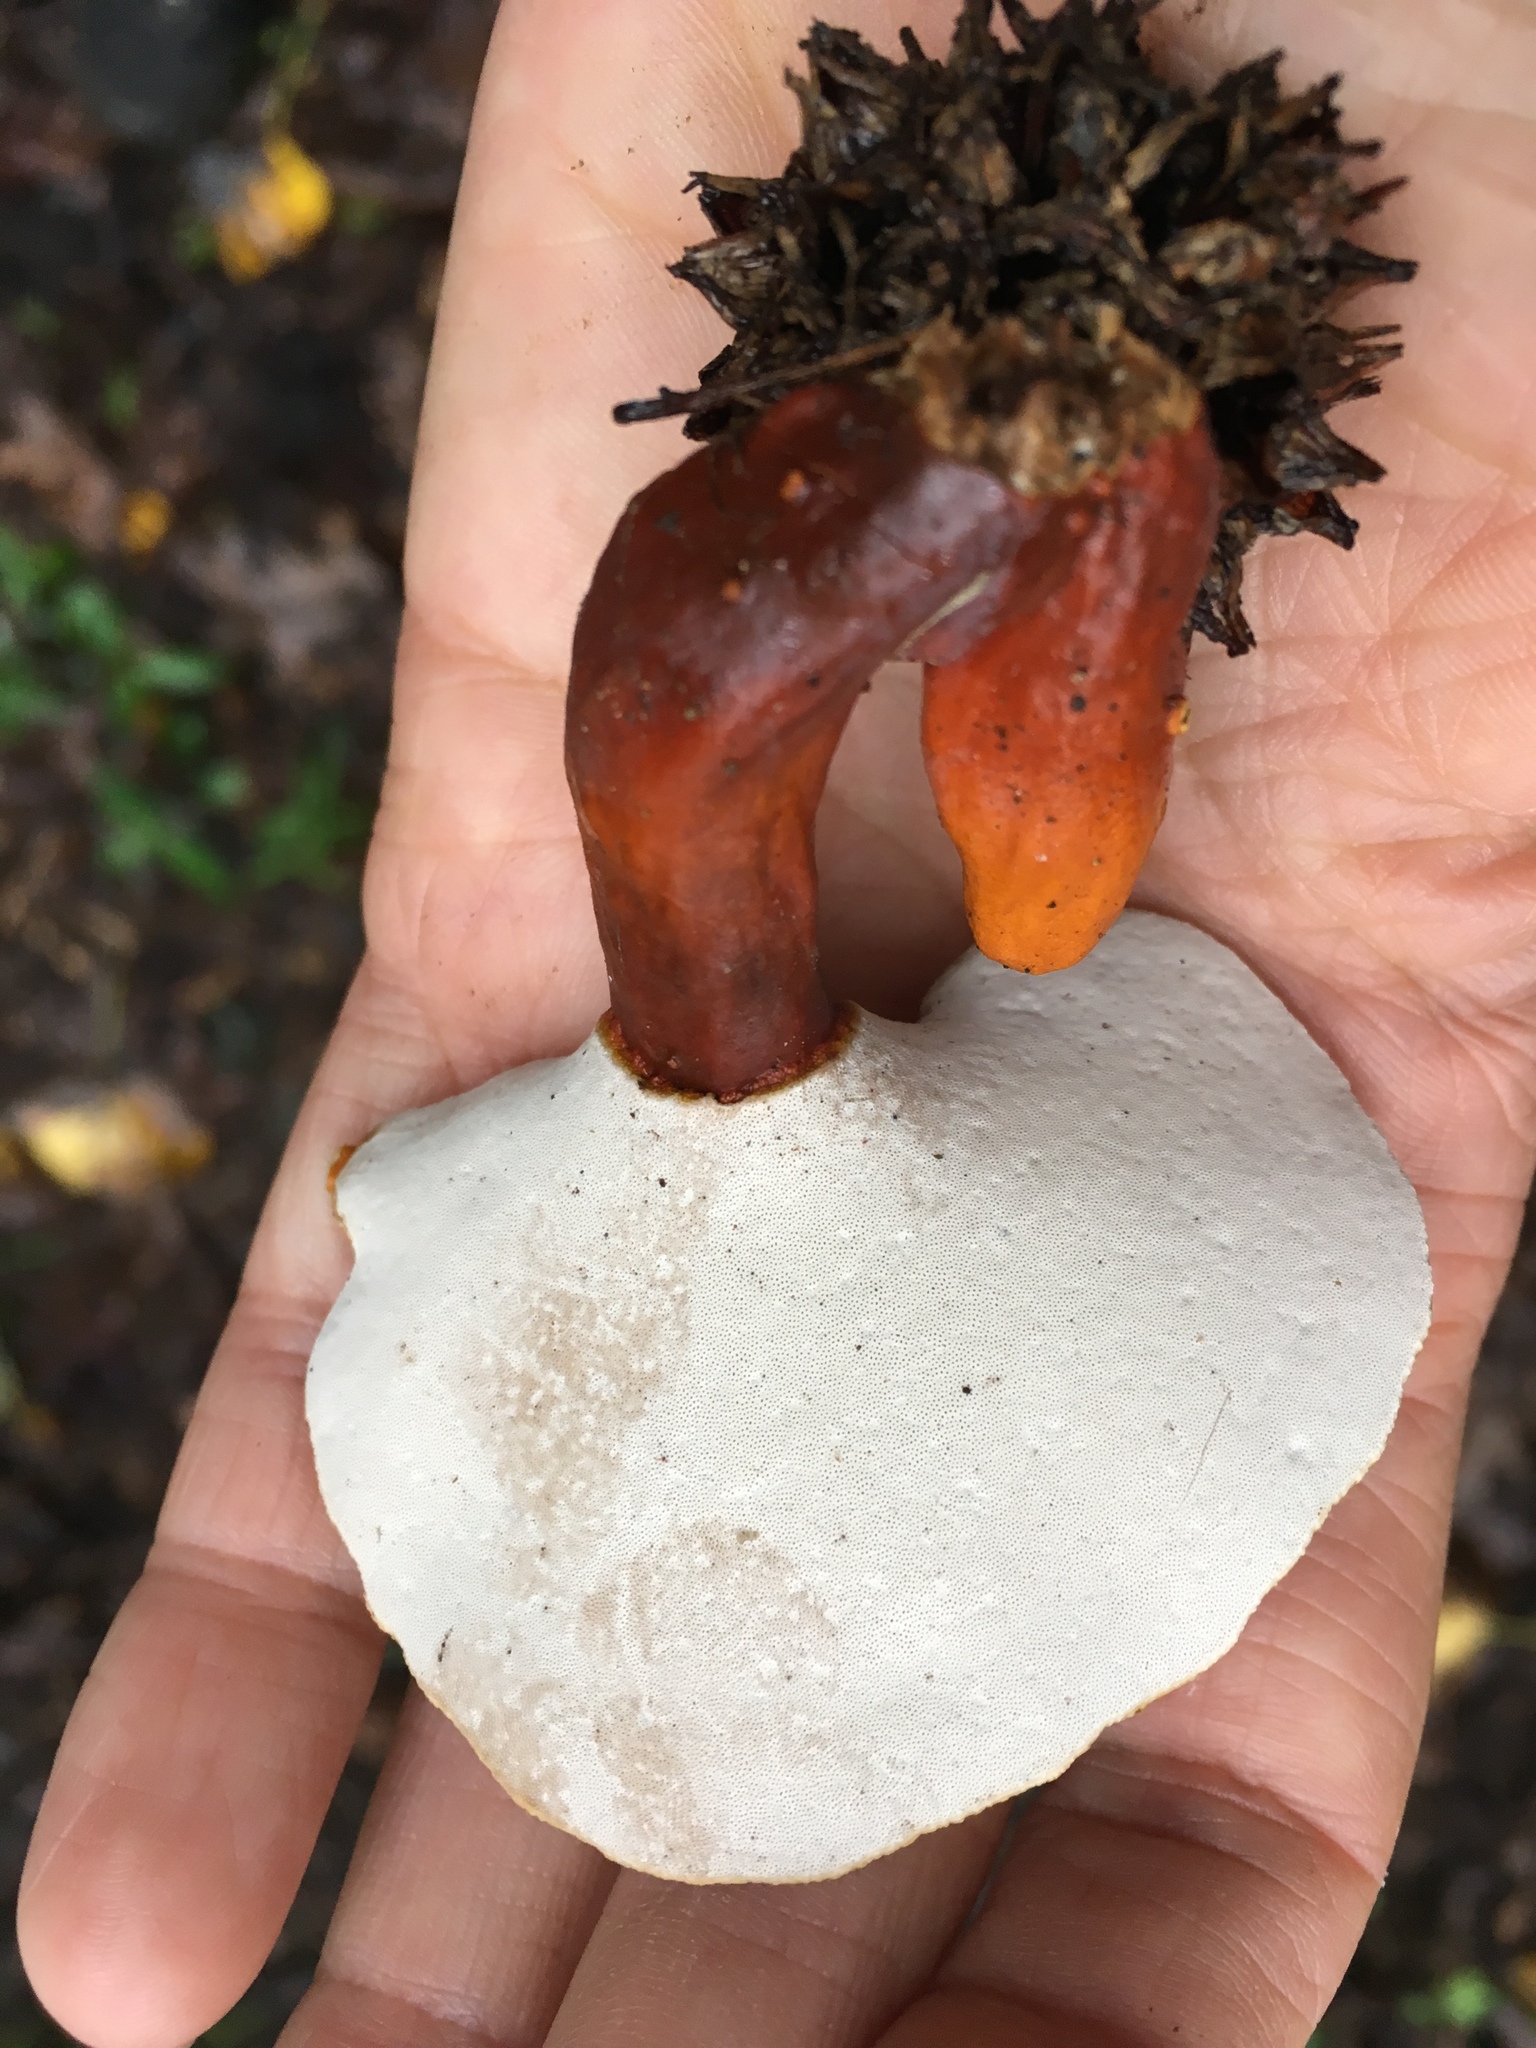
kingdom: Fungi
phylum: Basidiomycota
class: Agaricomycetes
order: Polyporales
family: Polyporaceae
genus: Ganoderma
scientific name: Ganoderma curtisii
